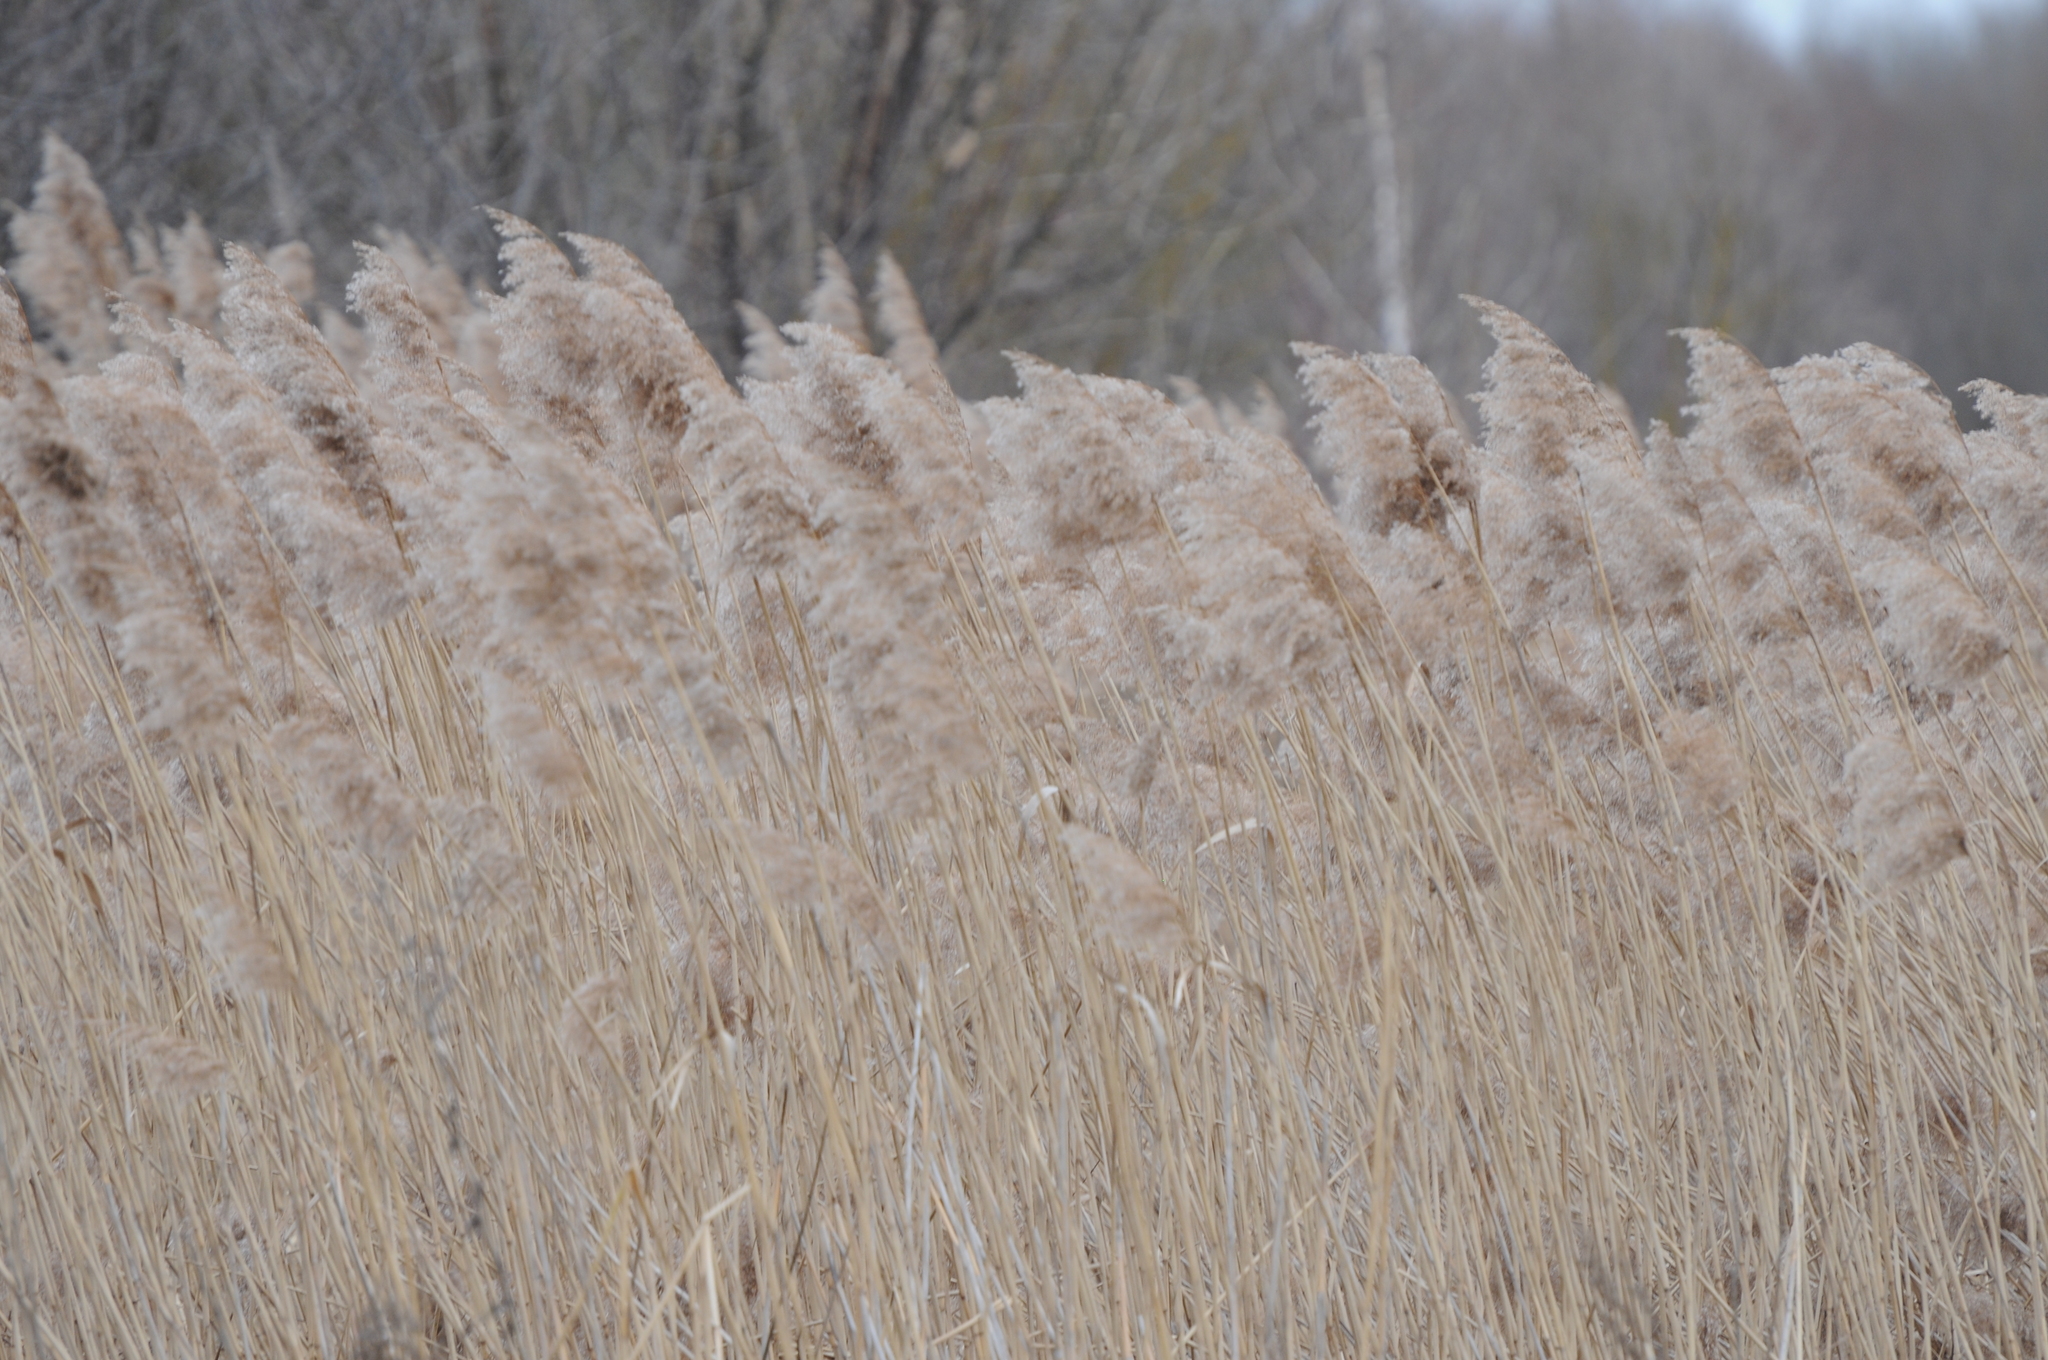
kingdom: Plantae
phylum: Tracheophyta
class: Liliopsida
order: Poales
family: Poaceae
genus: Phragmites
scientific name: Phragmites australis
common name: Common reed
